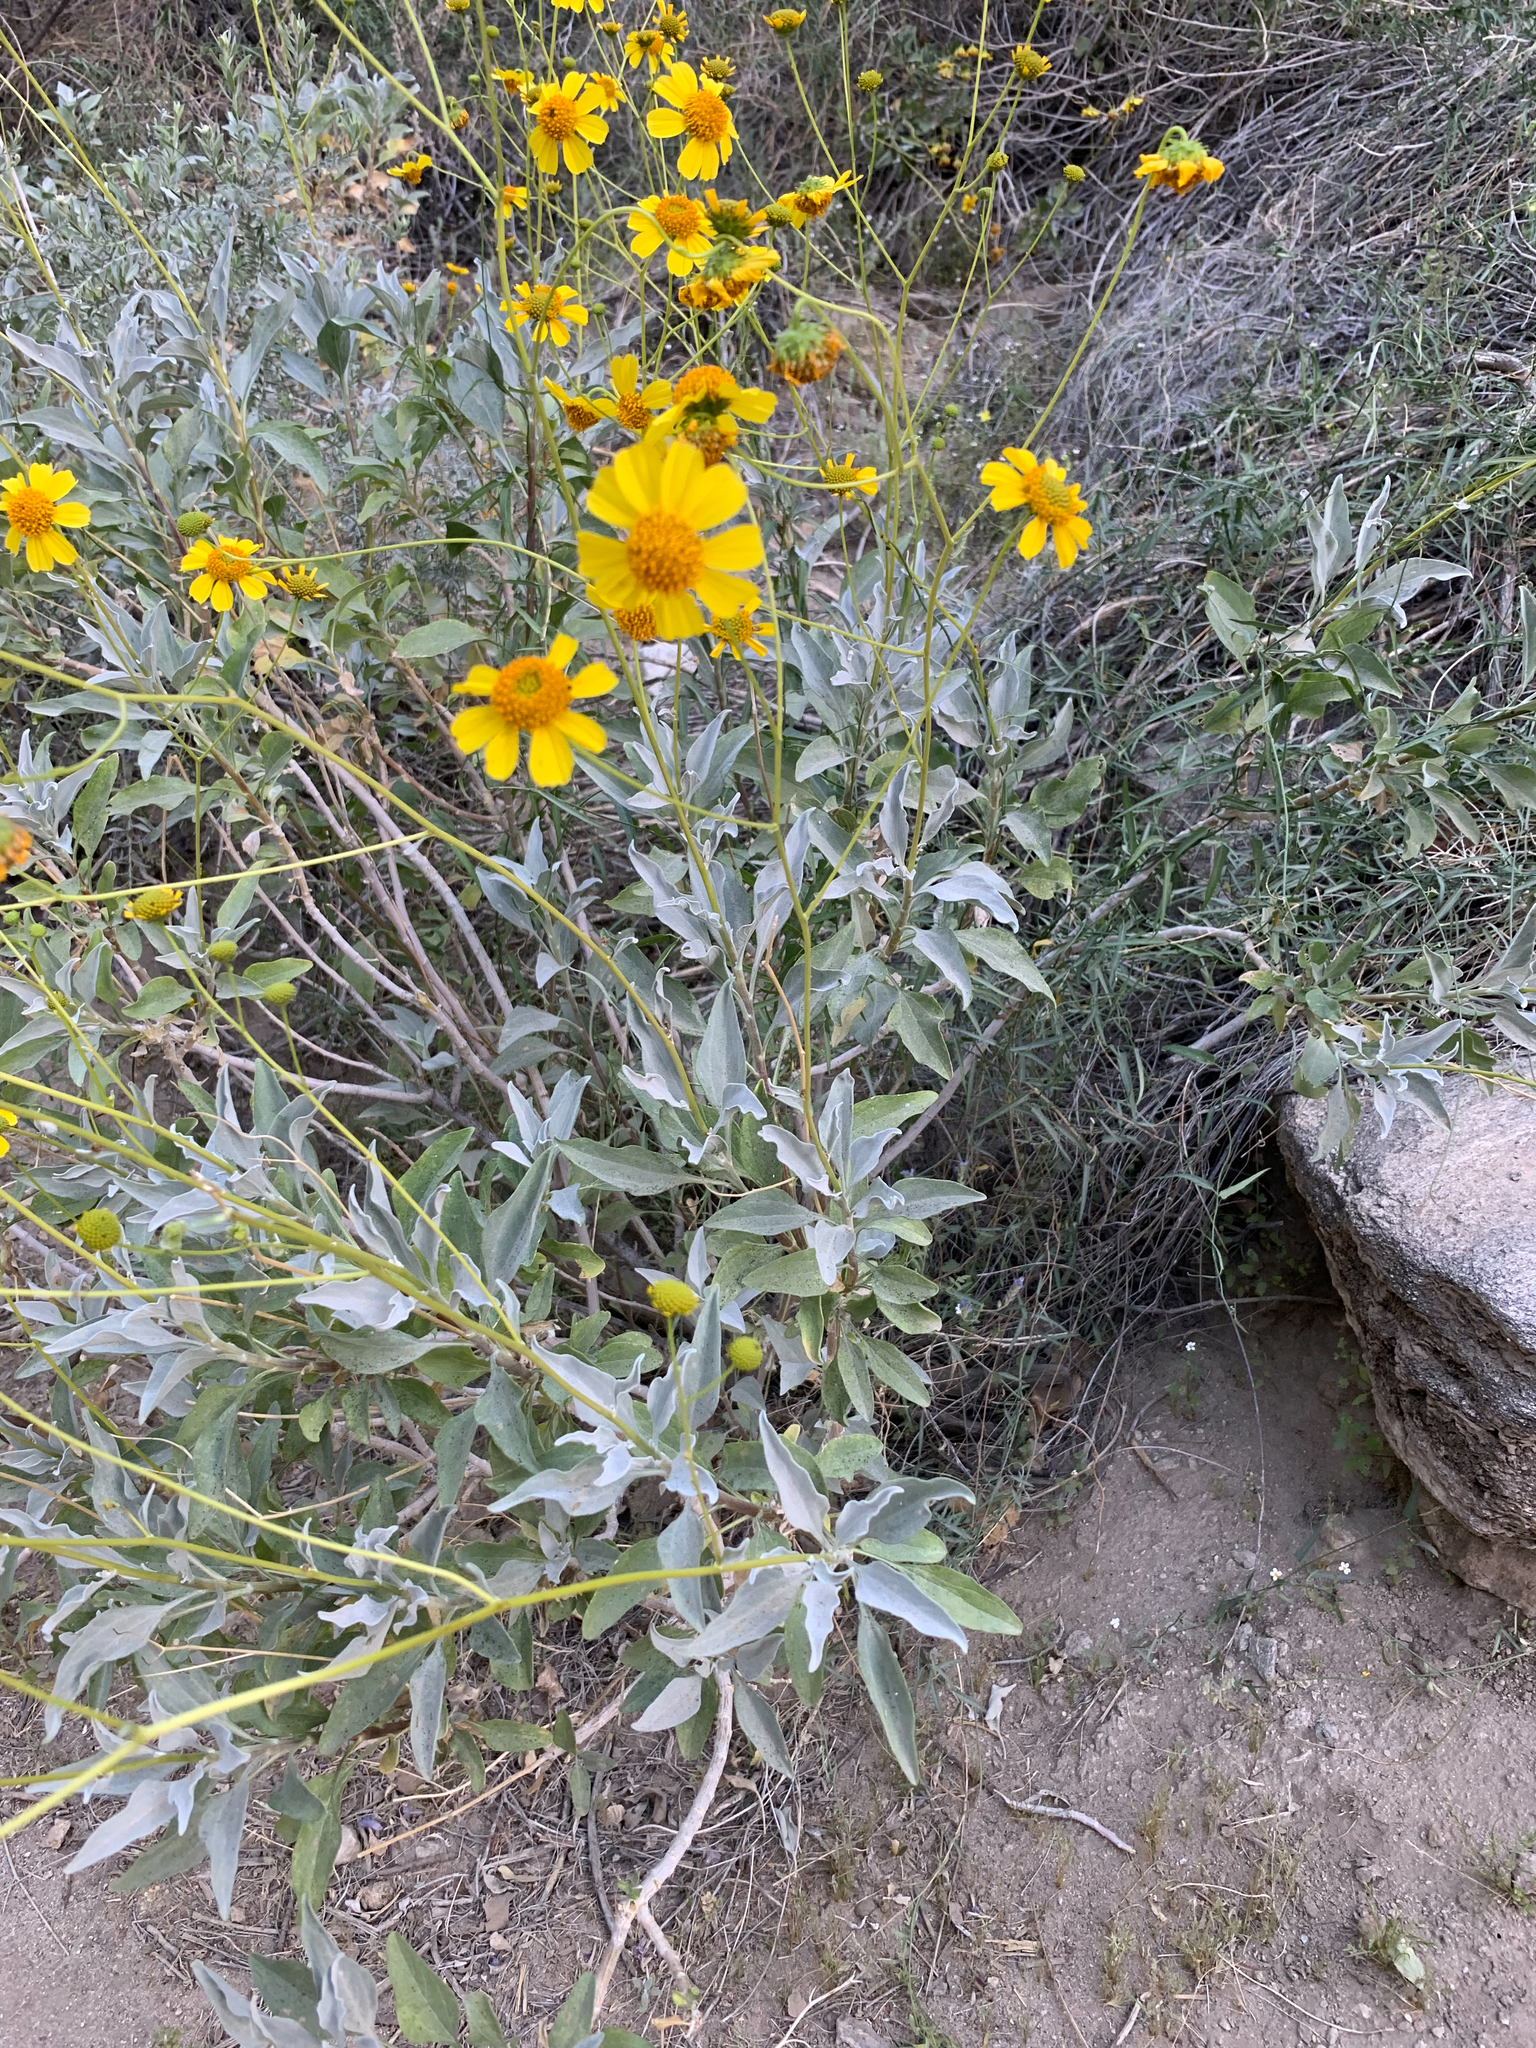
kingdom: Plantae
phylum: Tracheophyta
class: Magnoliopsida
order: Asterales
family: Asteraceae
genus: Encelia
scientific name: Encelia farinosa
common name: Brittlebush
